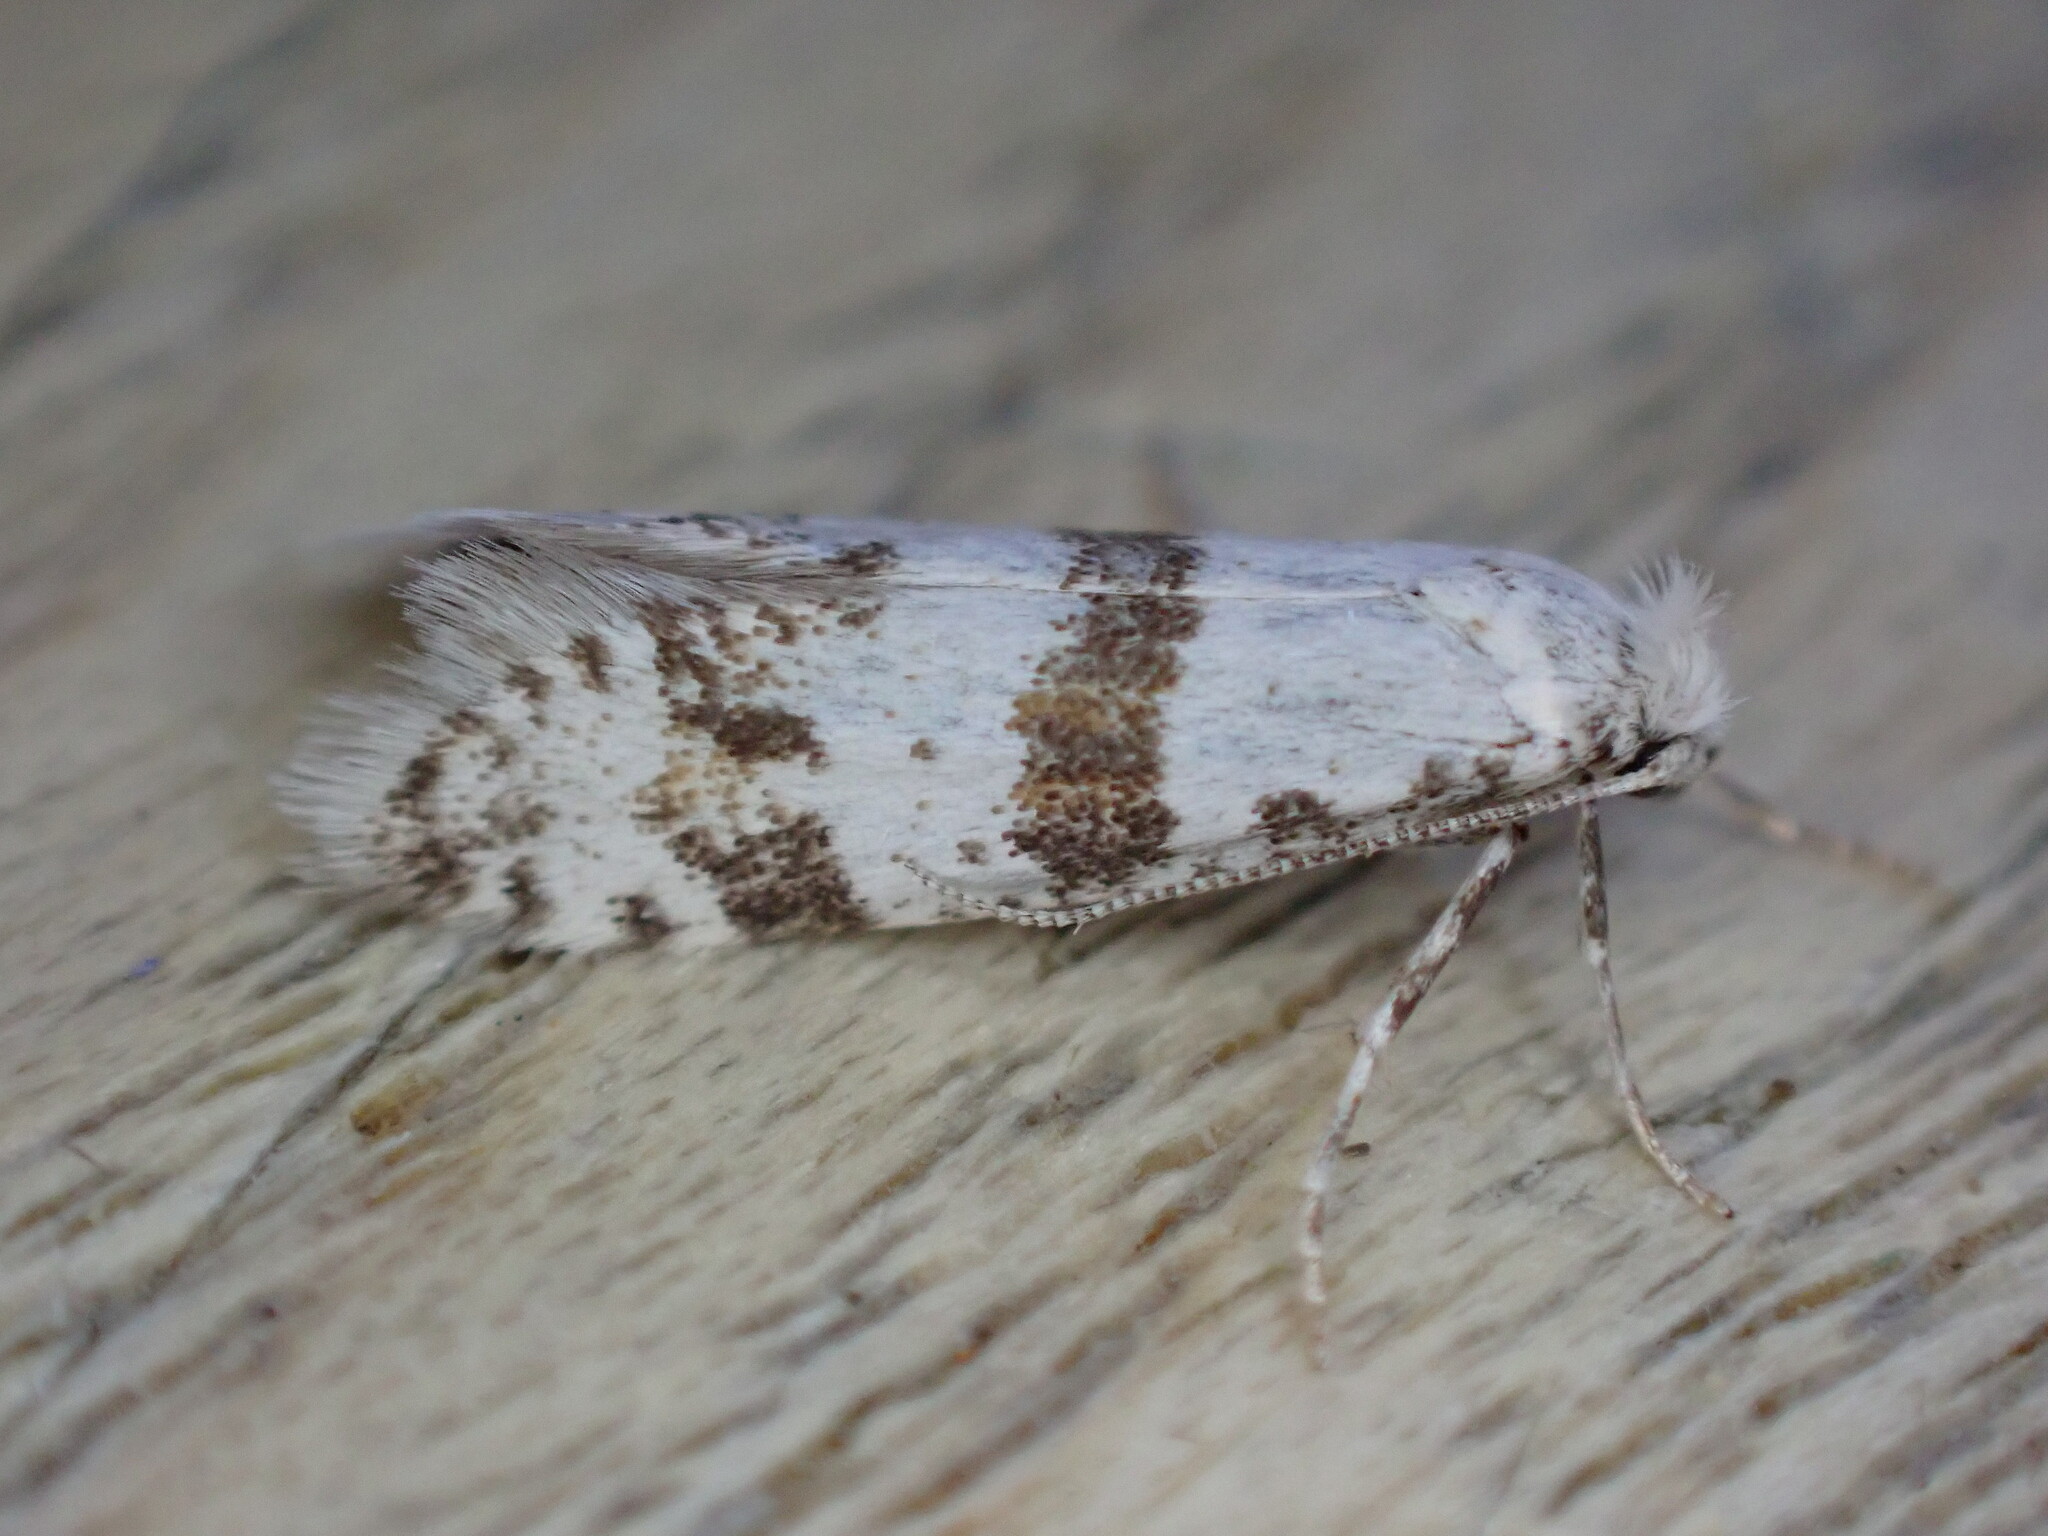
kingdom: Animalia
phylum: Arthropoda
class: Insecta
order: Lepidoptera
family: Yponomeutidae
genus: Scythropia
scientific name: Scythropia crataegella
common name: Hawthorn moth
